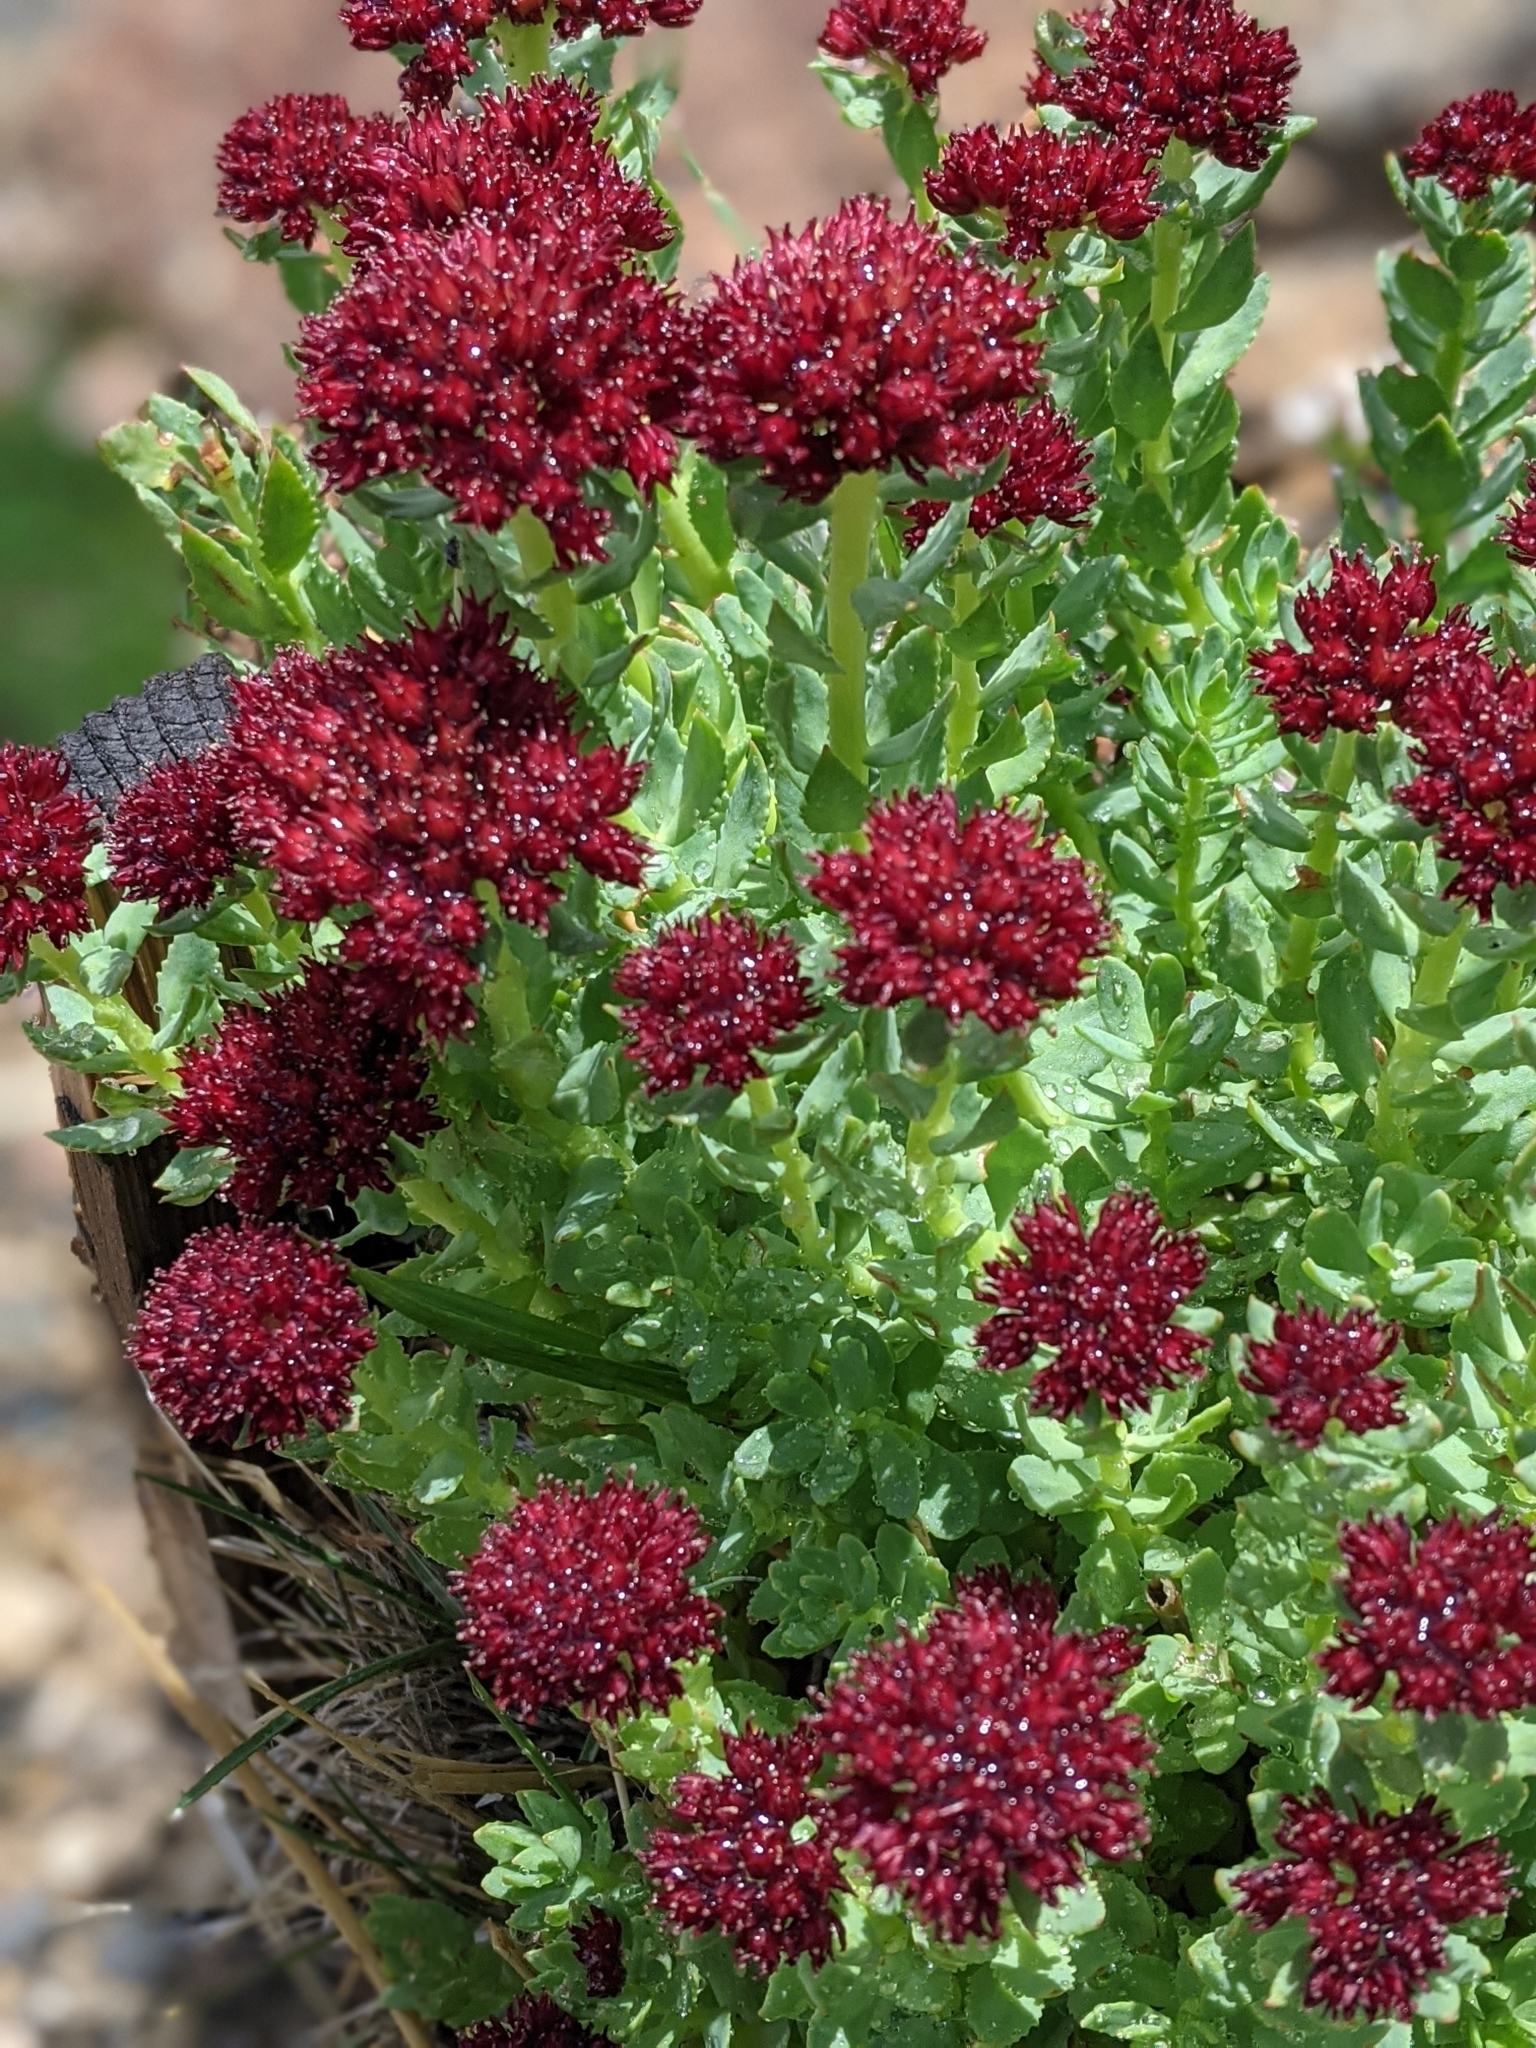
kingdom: Plantae
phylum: Tracheophyta
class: Magnoliopsida
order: Saxifragales
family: Crassulaceae
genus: Rhodiola
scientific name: Rhodiola integrifolia
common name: Western roseroot
